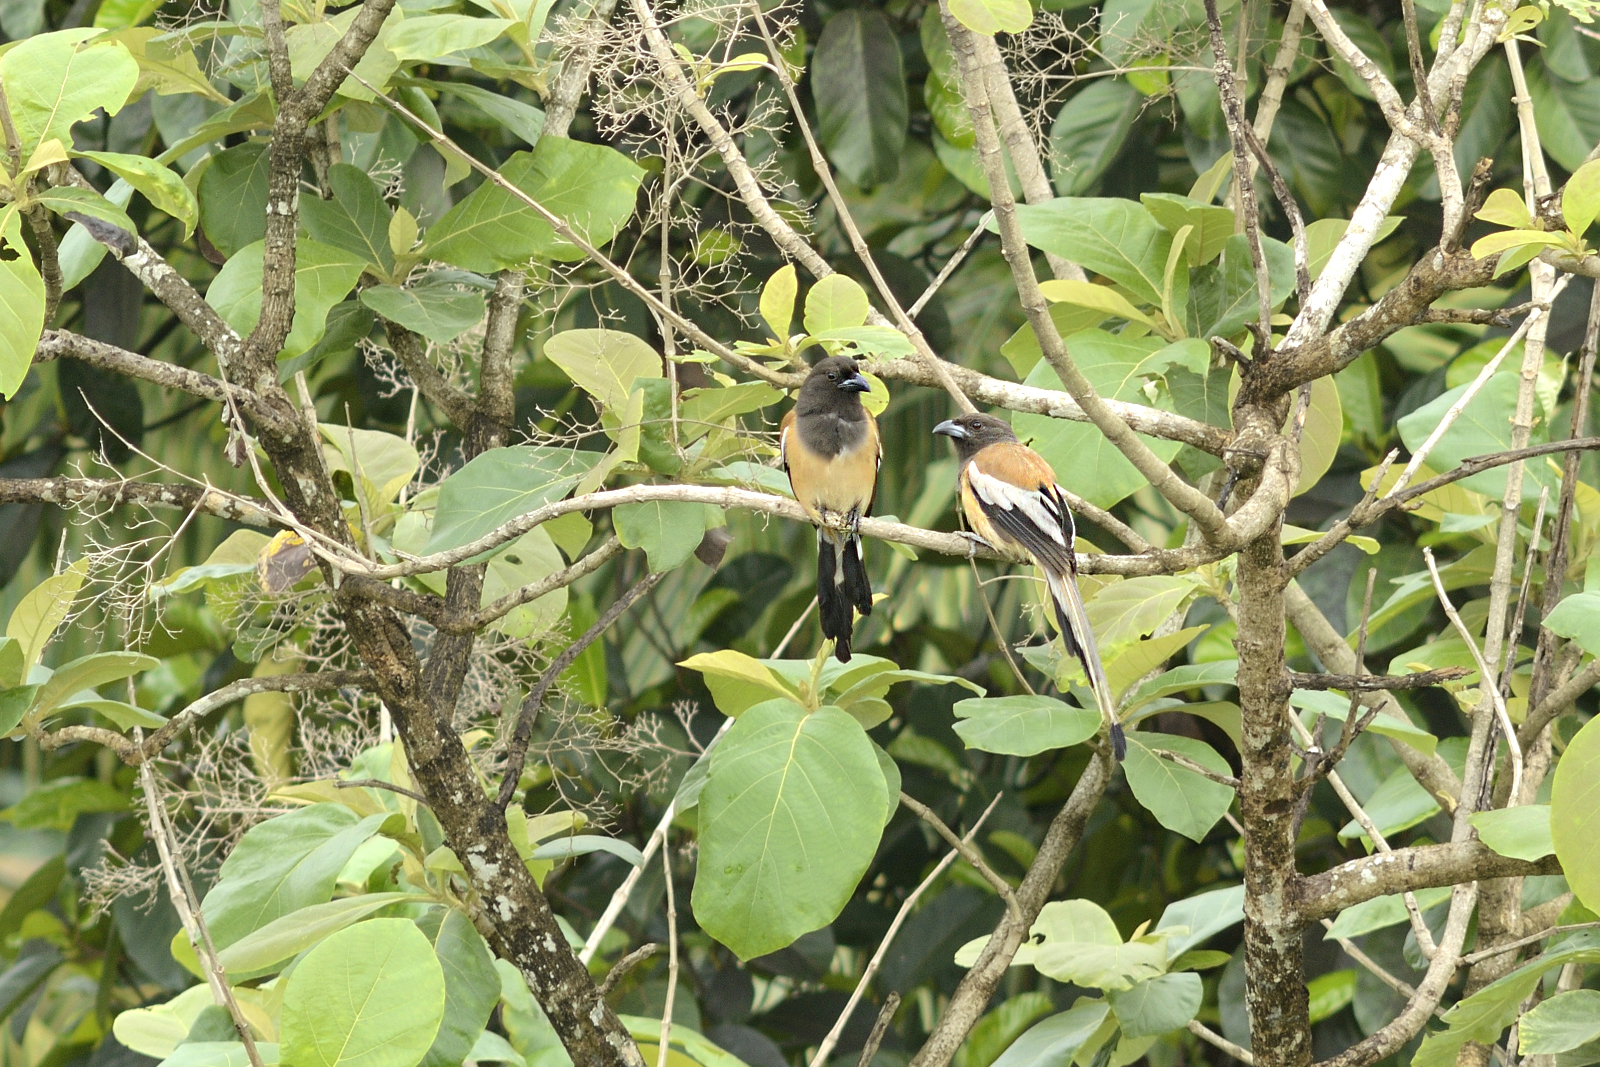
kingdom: Animalia
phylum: Chordata
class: Aves
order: Passeriformes
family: Corvidae
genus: Dendrocitta
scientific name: Dendrocitta vagabunda
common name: Rufous treepie
